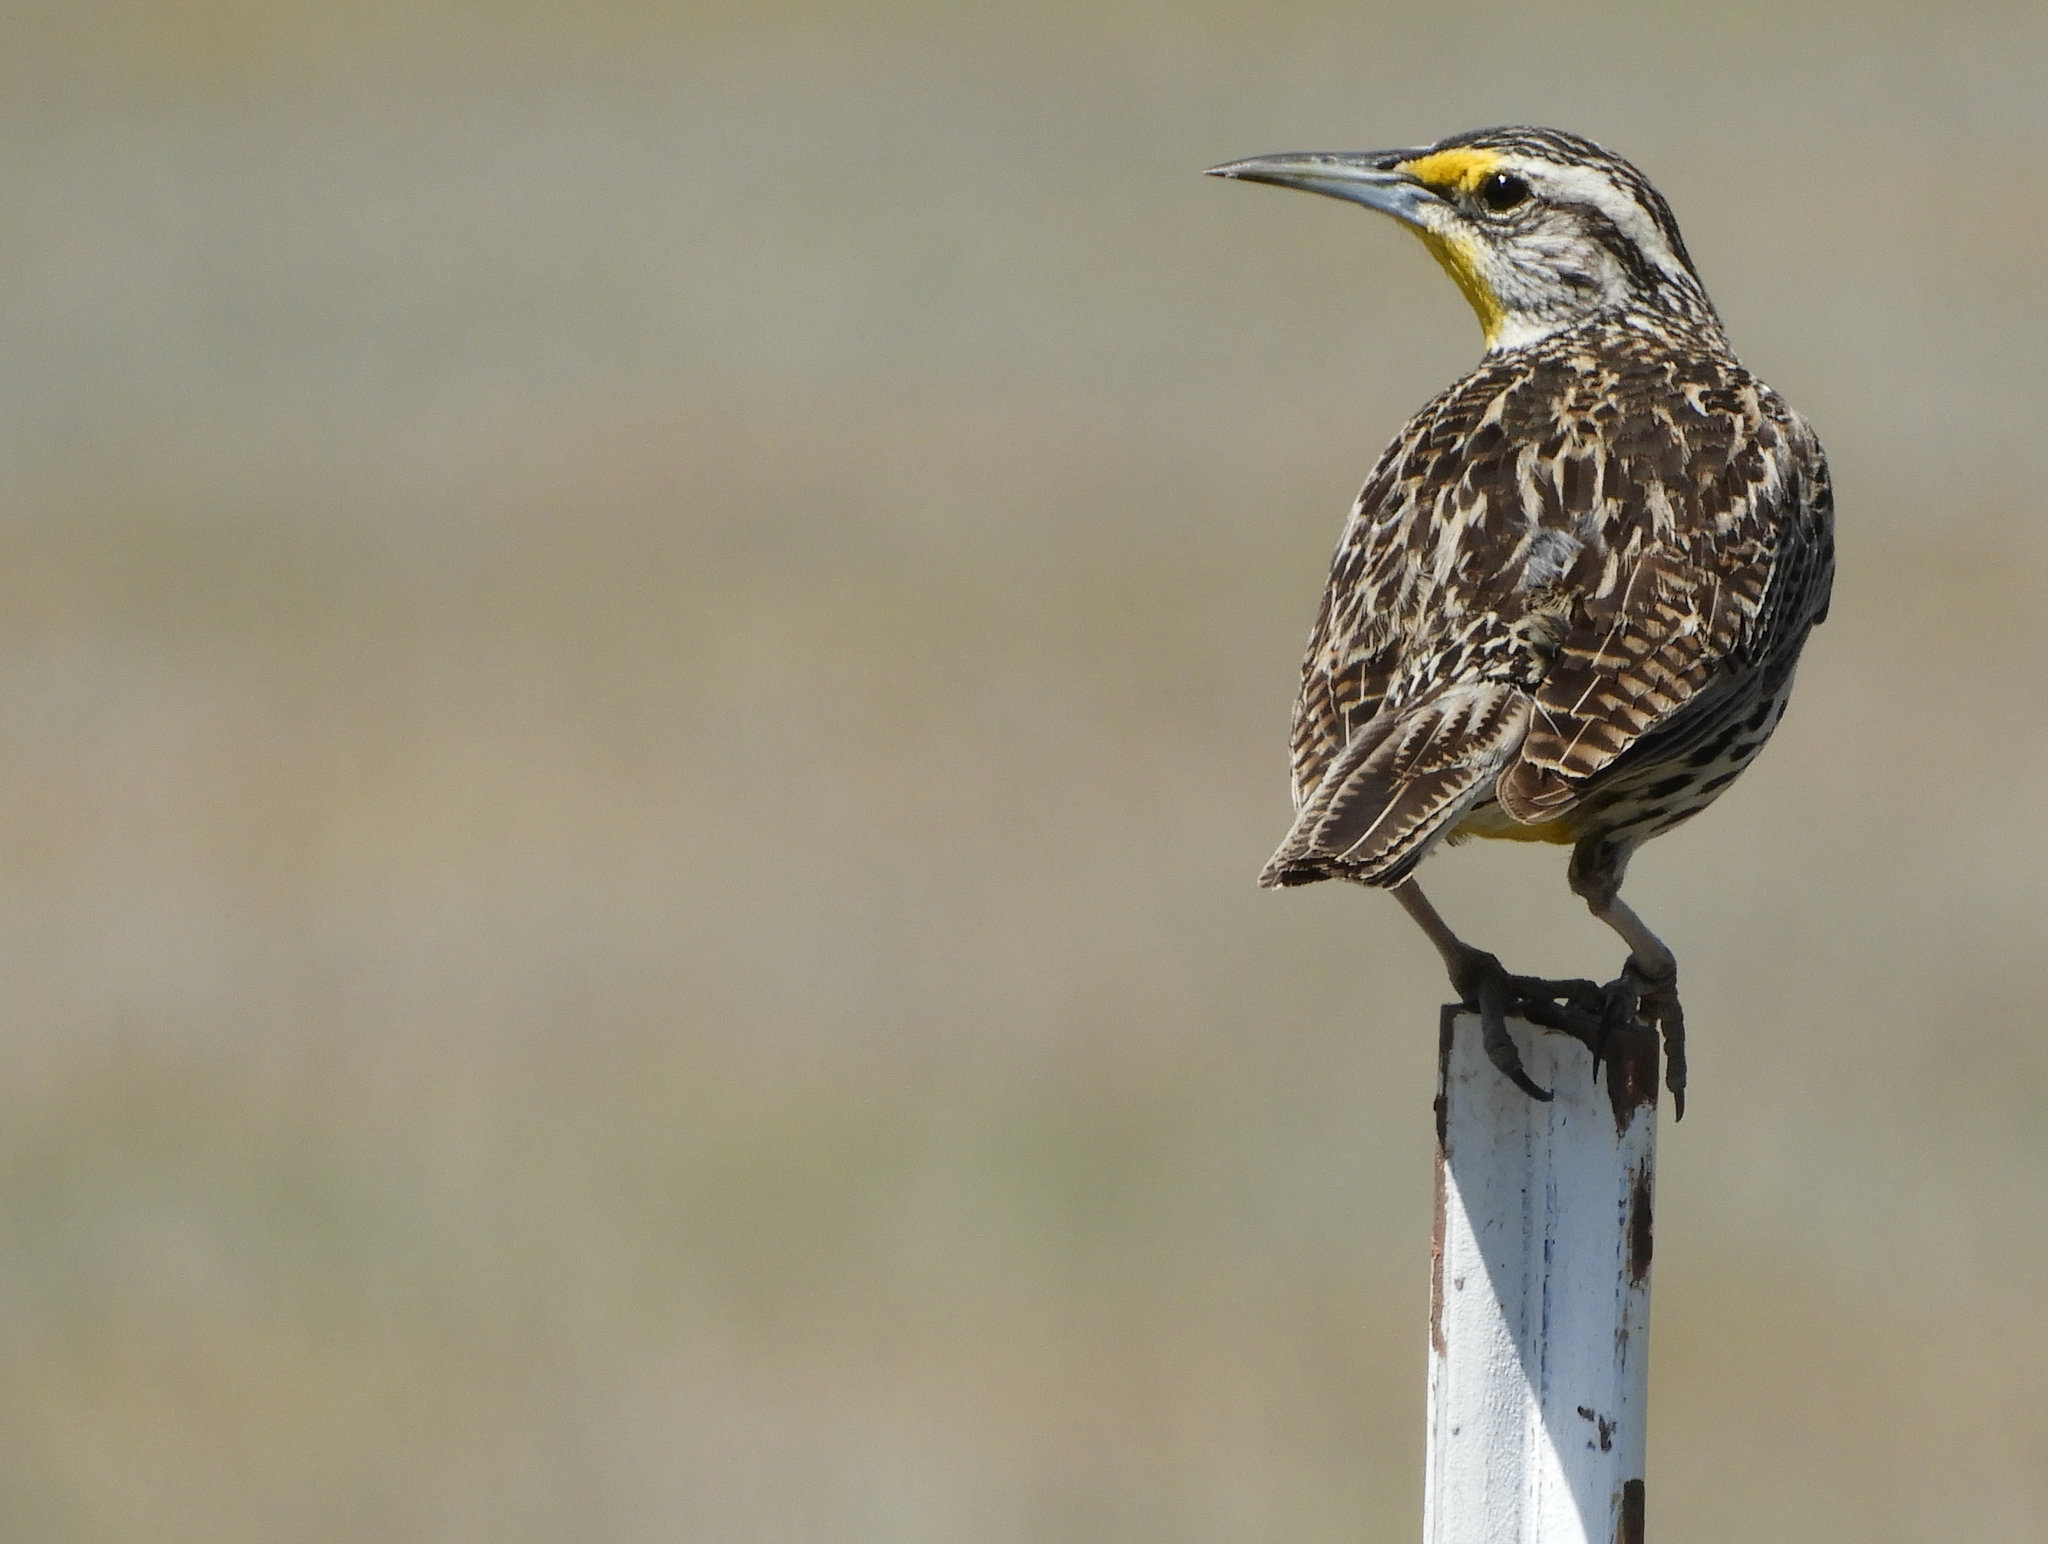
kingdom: Animalia
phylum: Chordata
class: Aves
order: Passeriformes
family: Icteridae
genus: Sturnella
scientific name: Sturnella neglecta
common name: Western meadowlark
